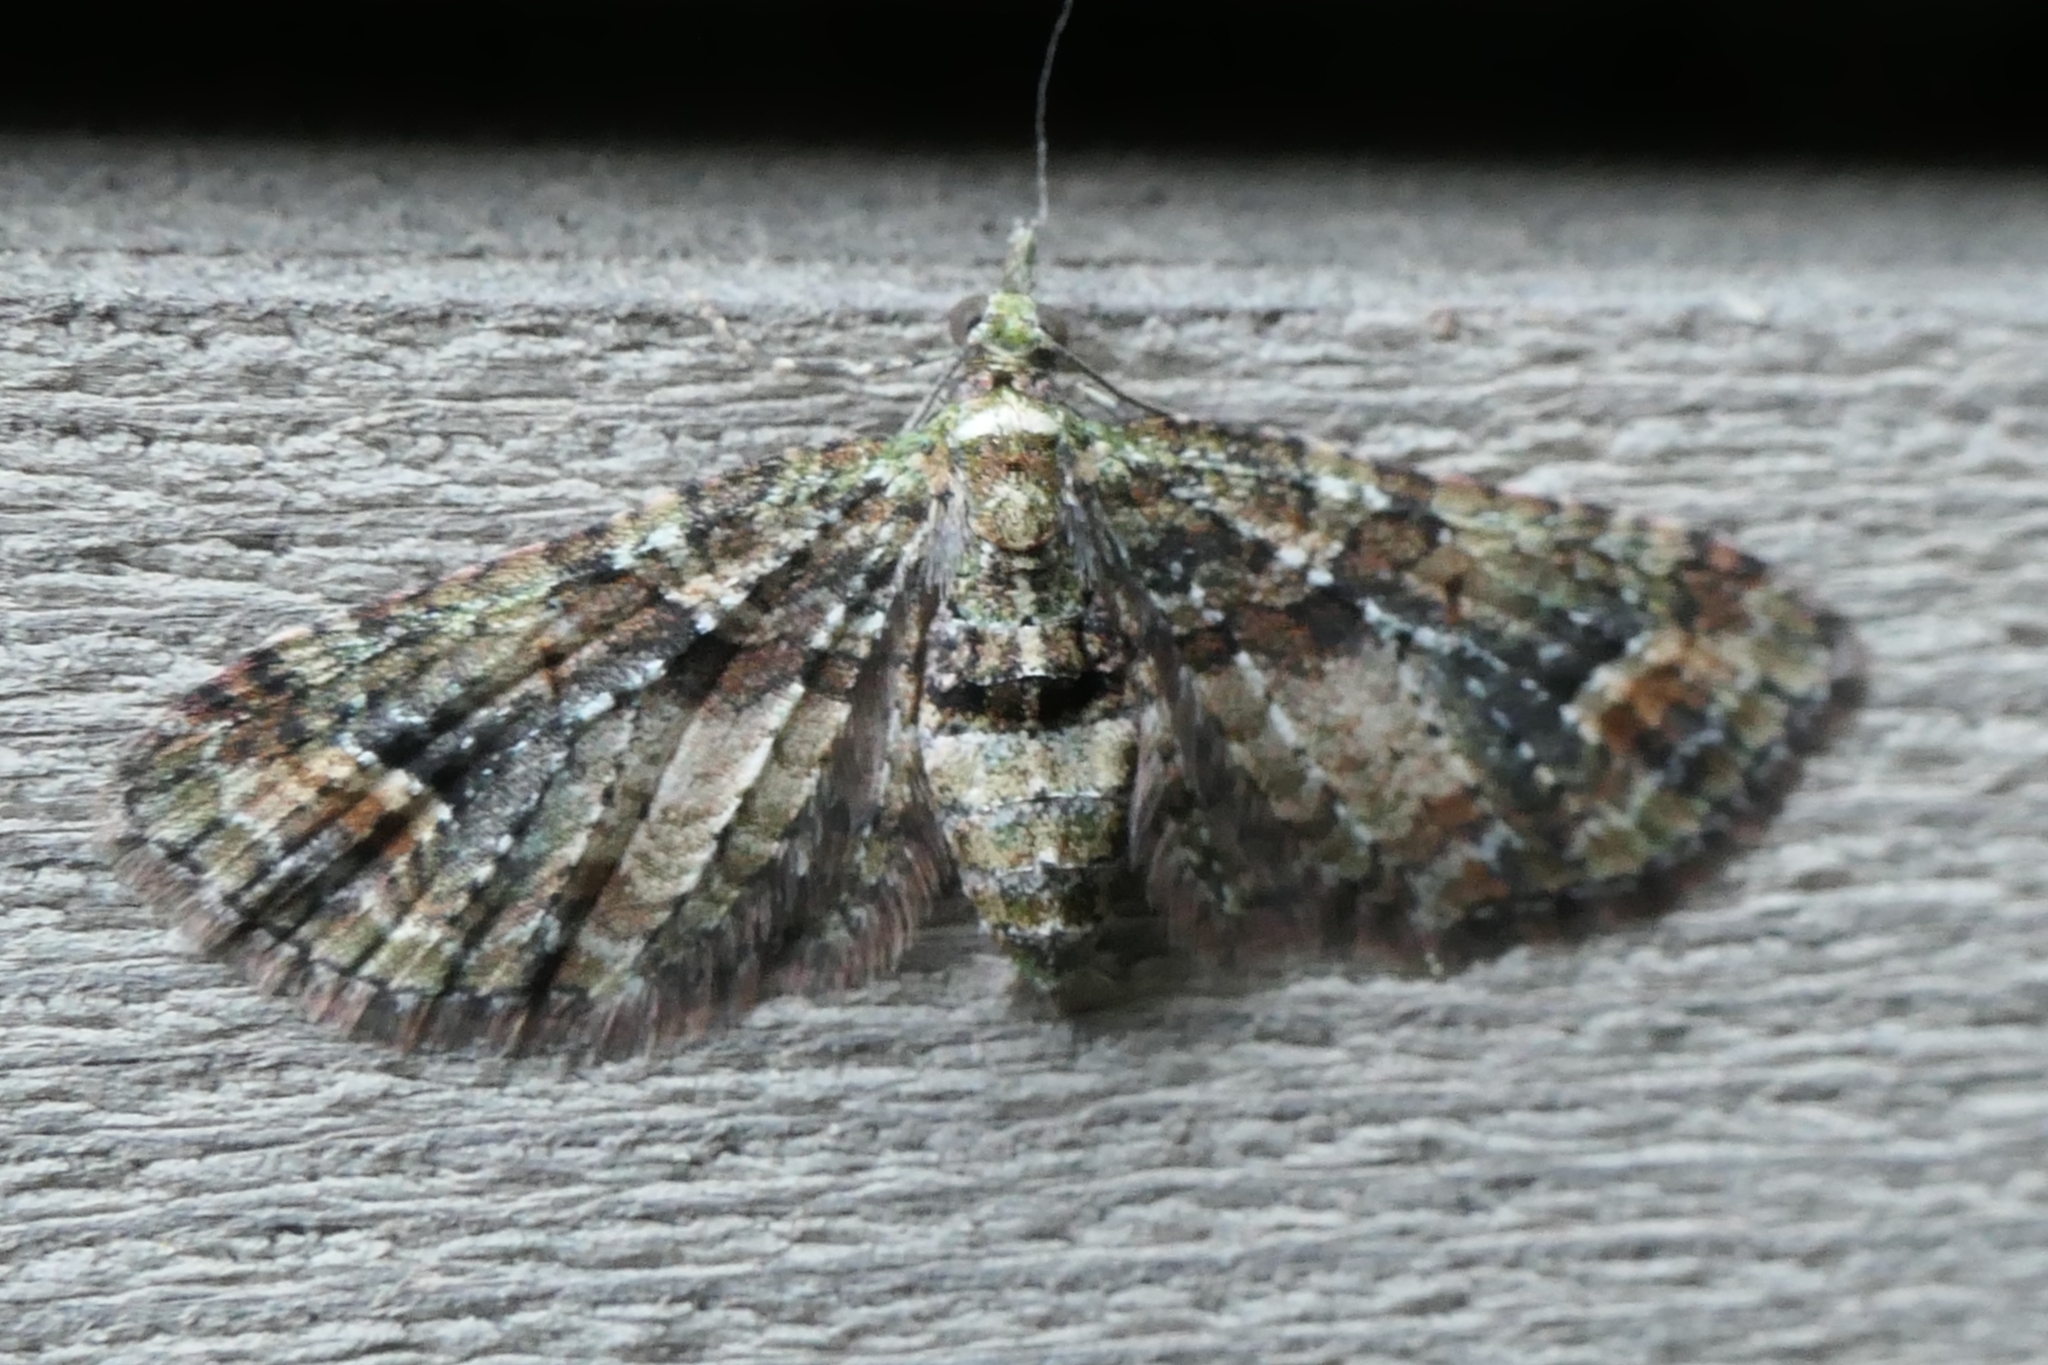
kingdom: Animalia
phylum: Arthropoda
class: Insecta
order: Lepidoptera
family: Geometridae
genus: Idaea
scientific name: Idaea mutanda
